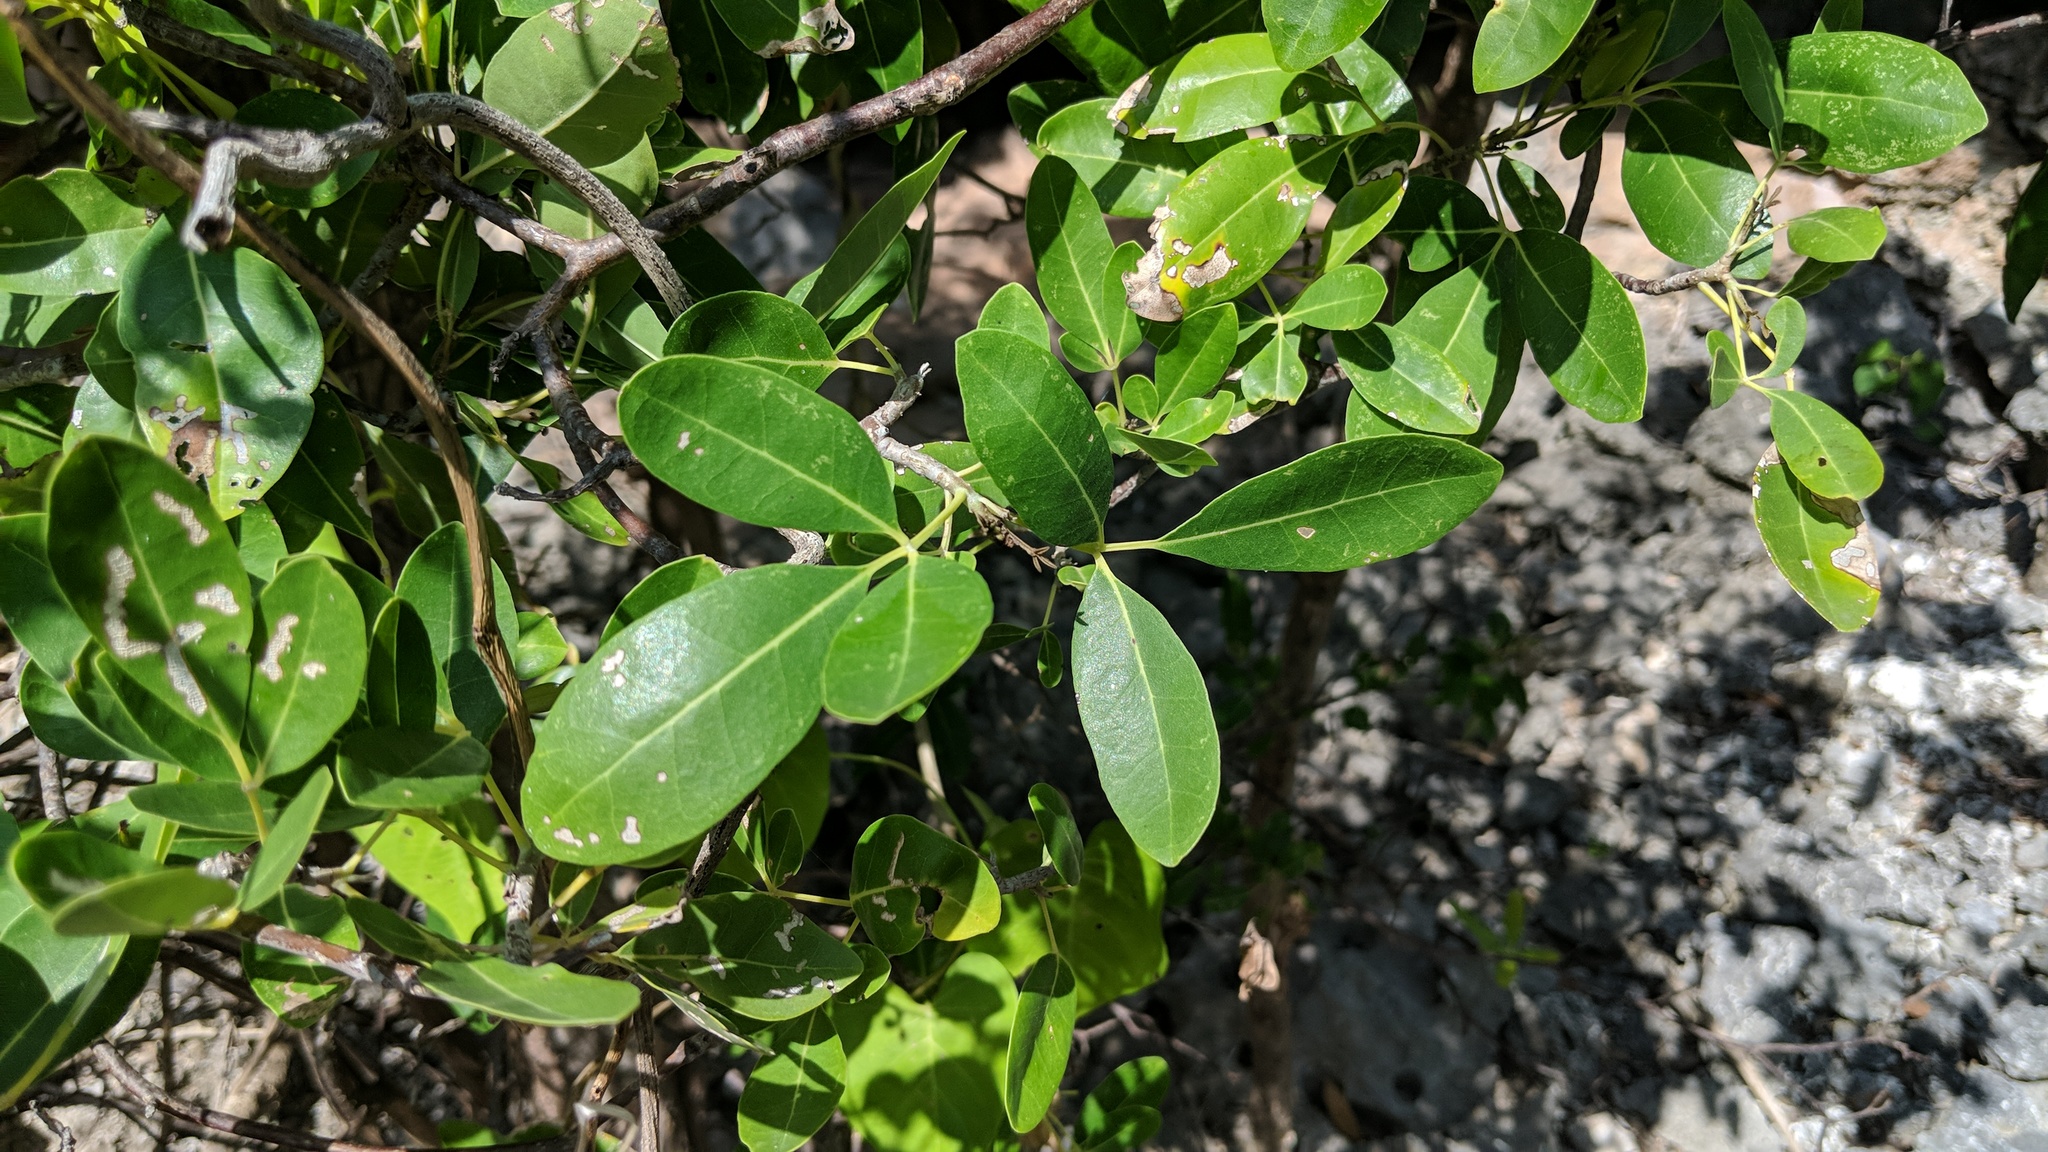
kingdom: Plantae
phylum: Tracheophyta
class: Magnoliopsida
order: Lamiales
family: Bignoniaceae
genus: Tabebuia
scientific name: Tabebuia heterophylla
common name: White cedar
